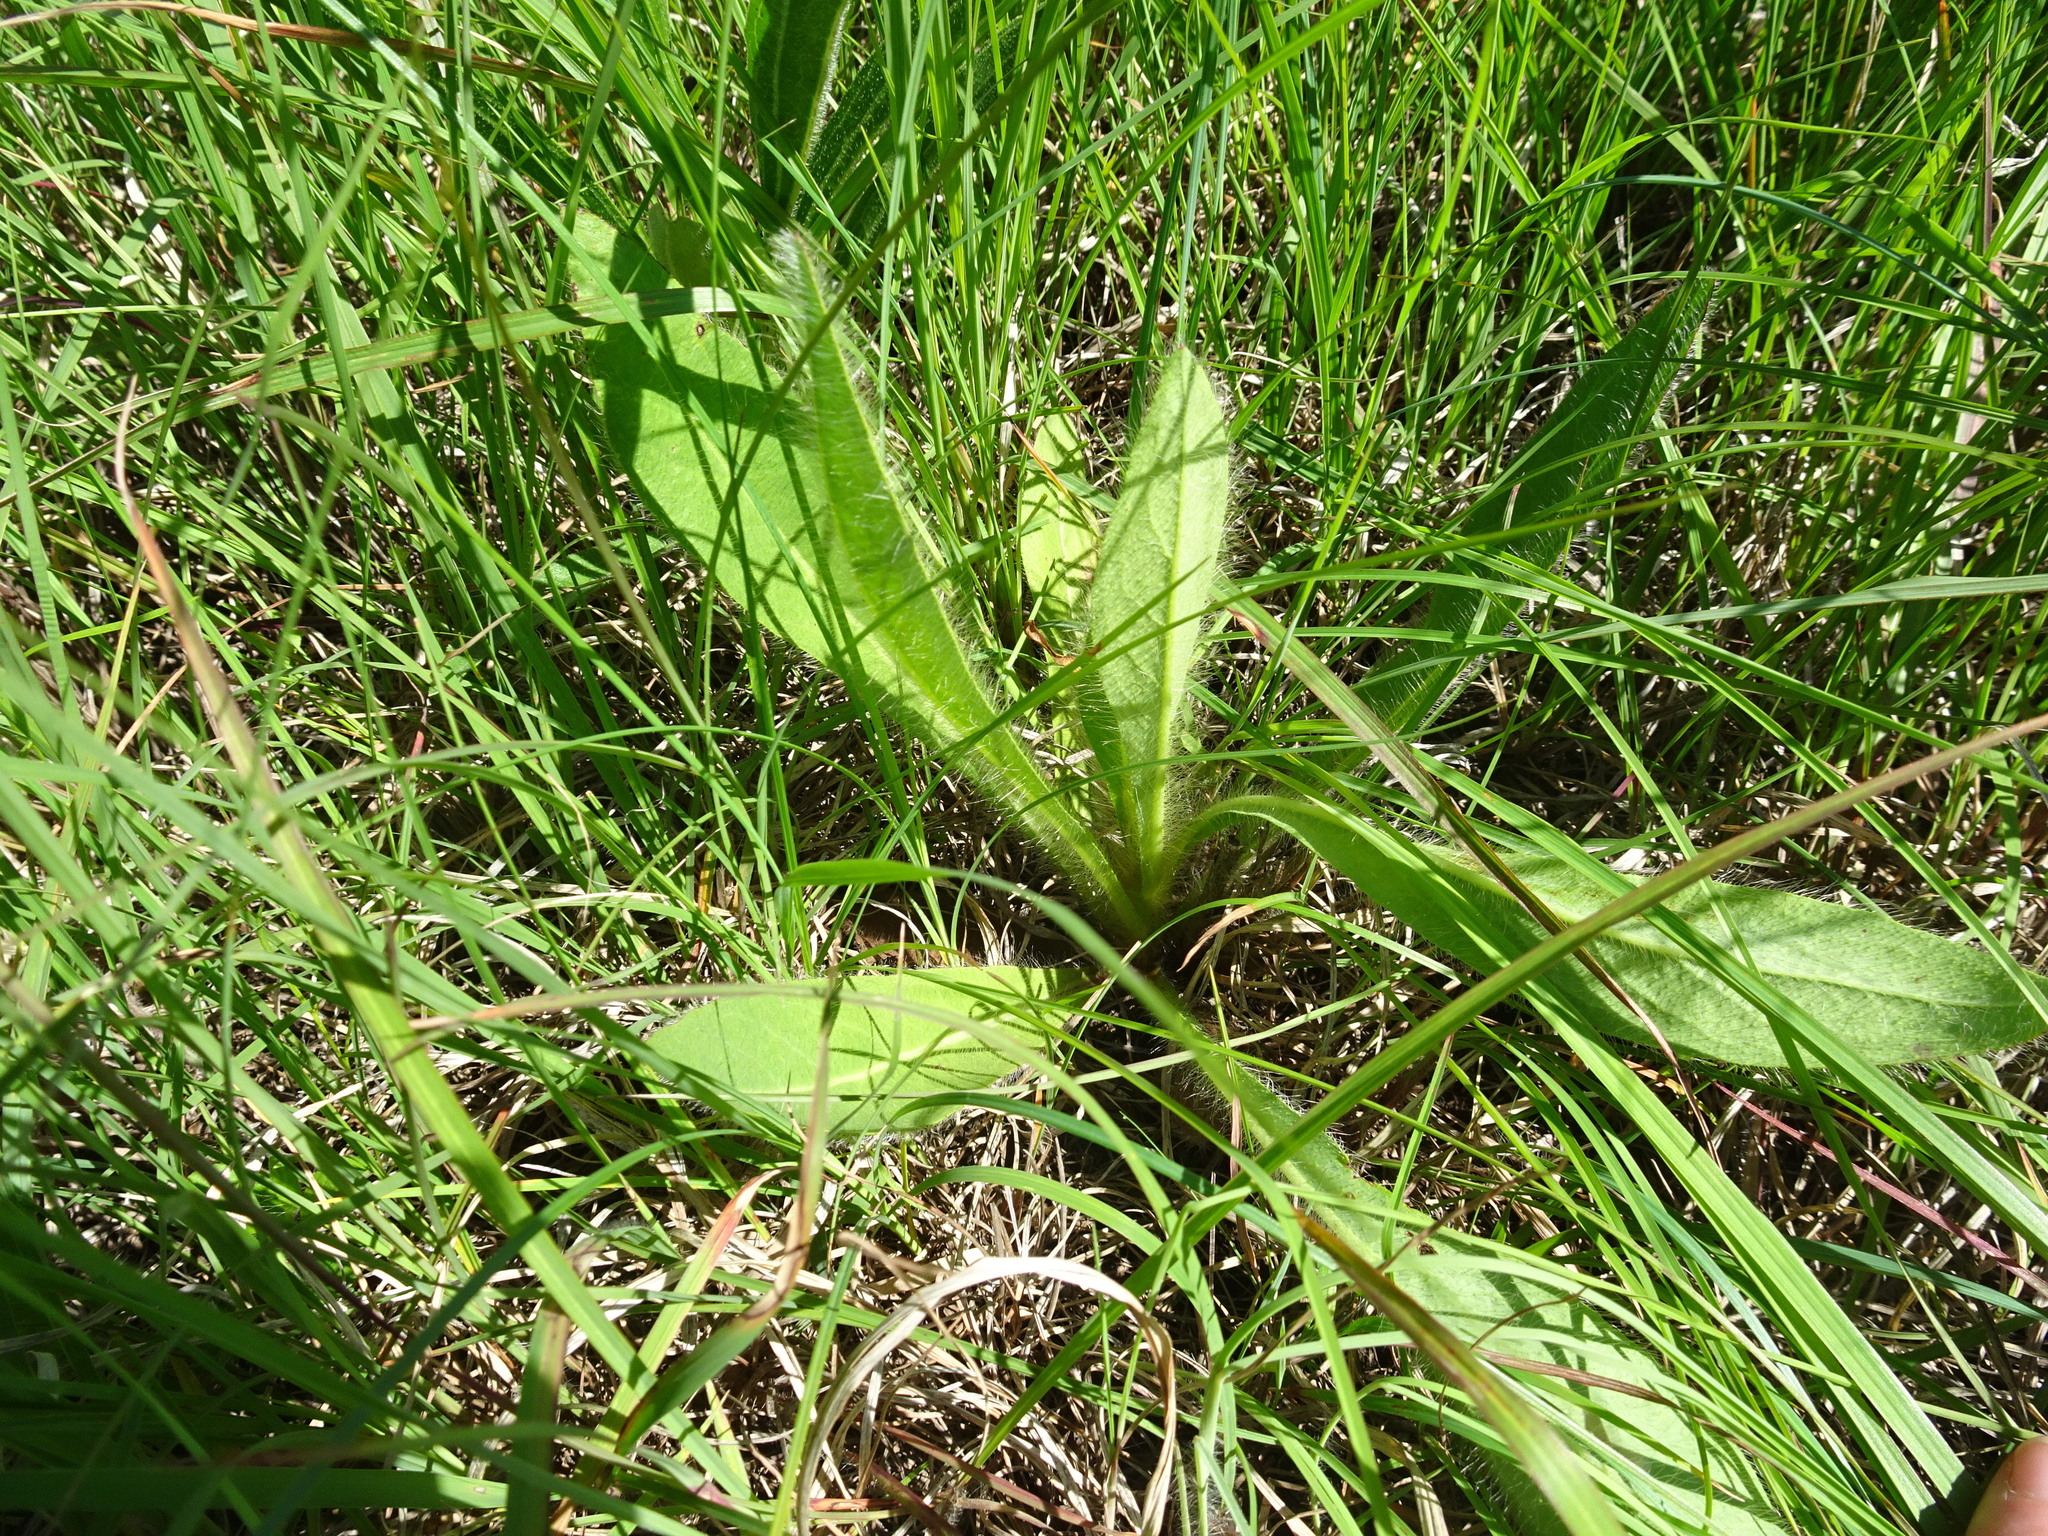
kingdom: Plantae
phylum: Tracheophyta
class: Magnoliopsida
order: Asterales
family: Asteraceae
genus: Hieracium
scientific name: Hieracium longipilum
